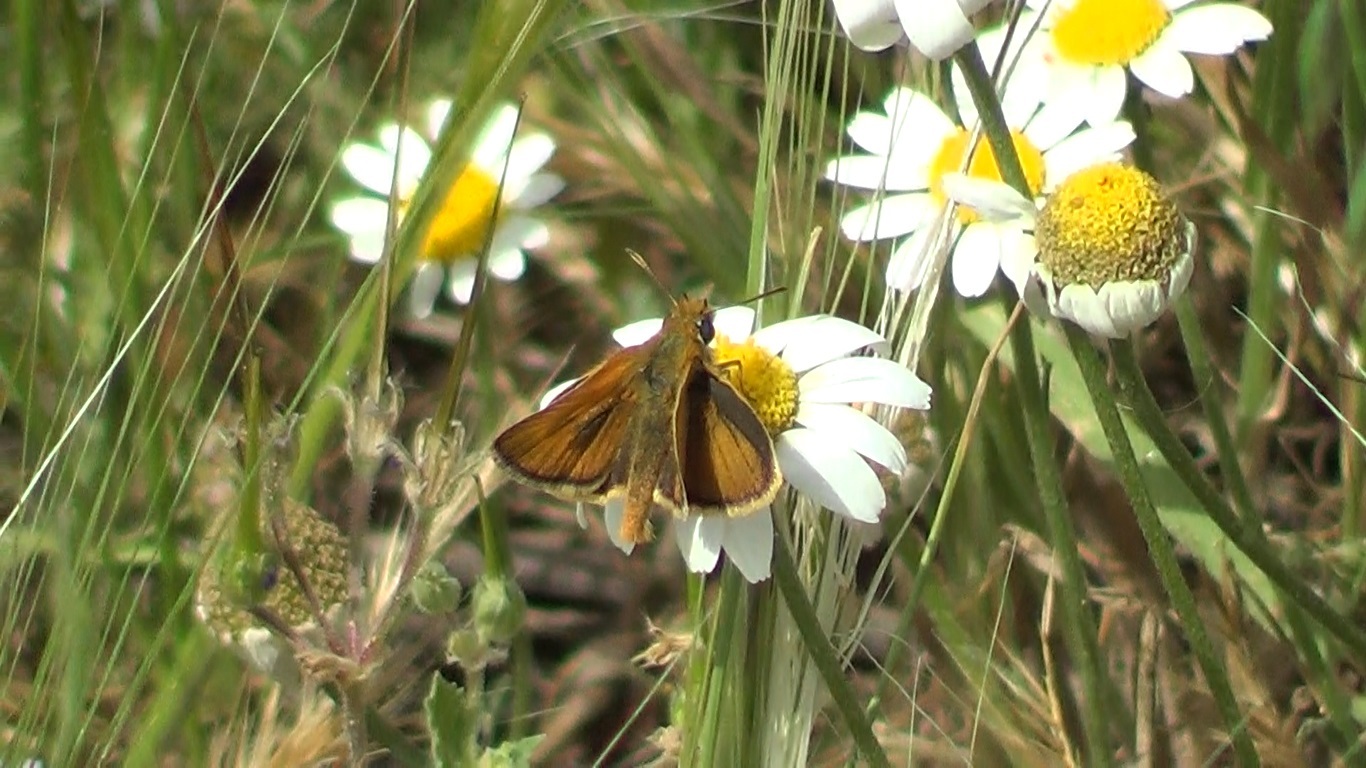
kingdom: Animalia
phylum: Arthropoda
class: Insecta
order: Lepidoptera
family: Hesperiidae
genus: Thymelicus
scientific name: Thymelicus acteon
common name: Lulworth skipper
